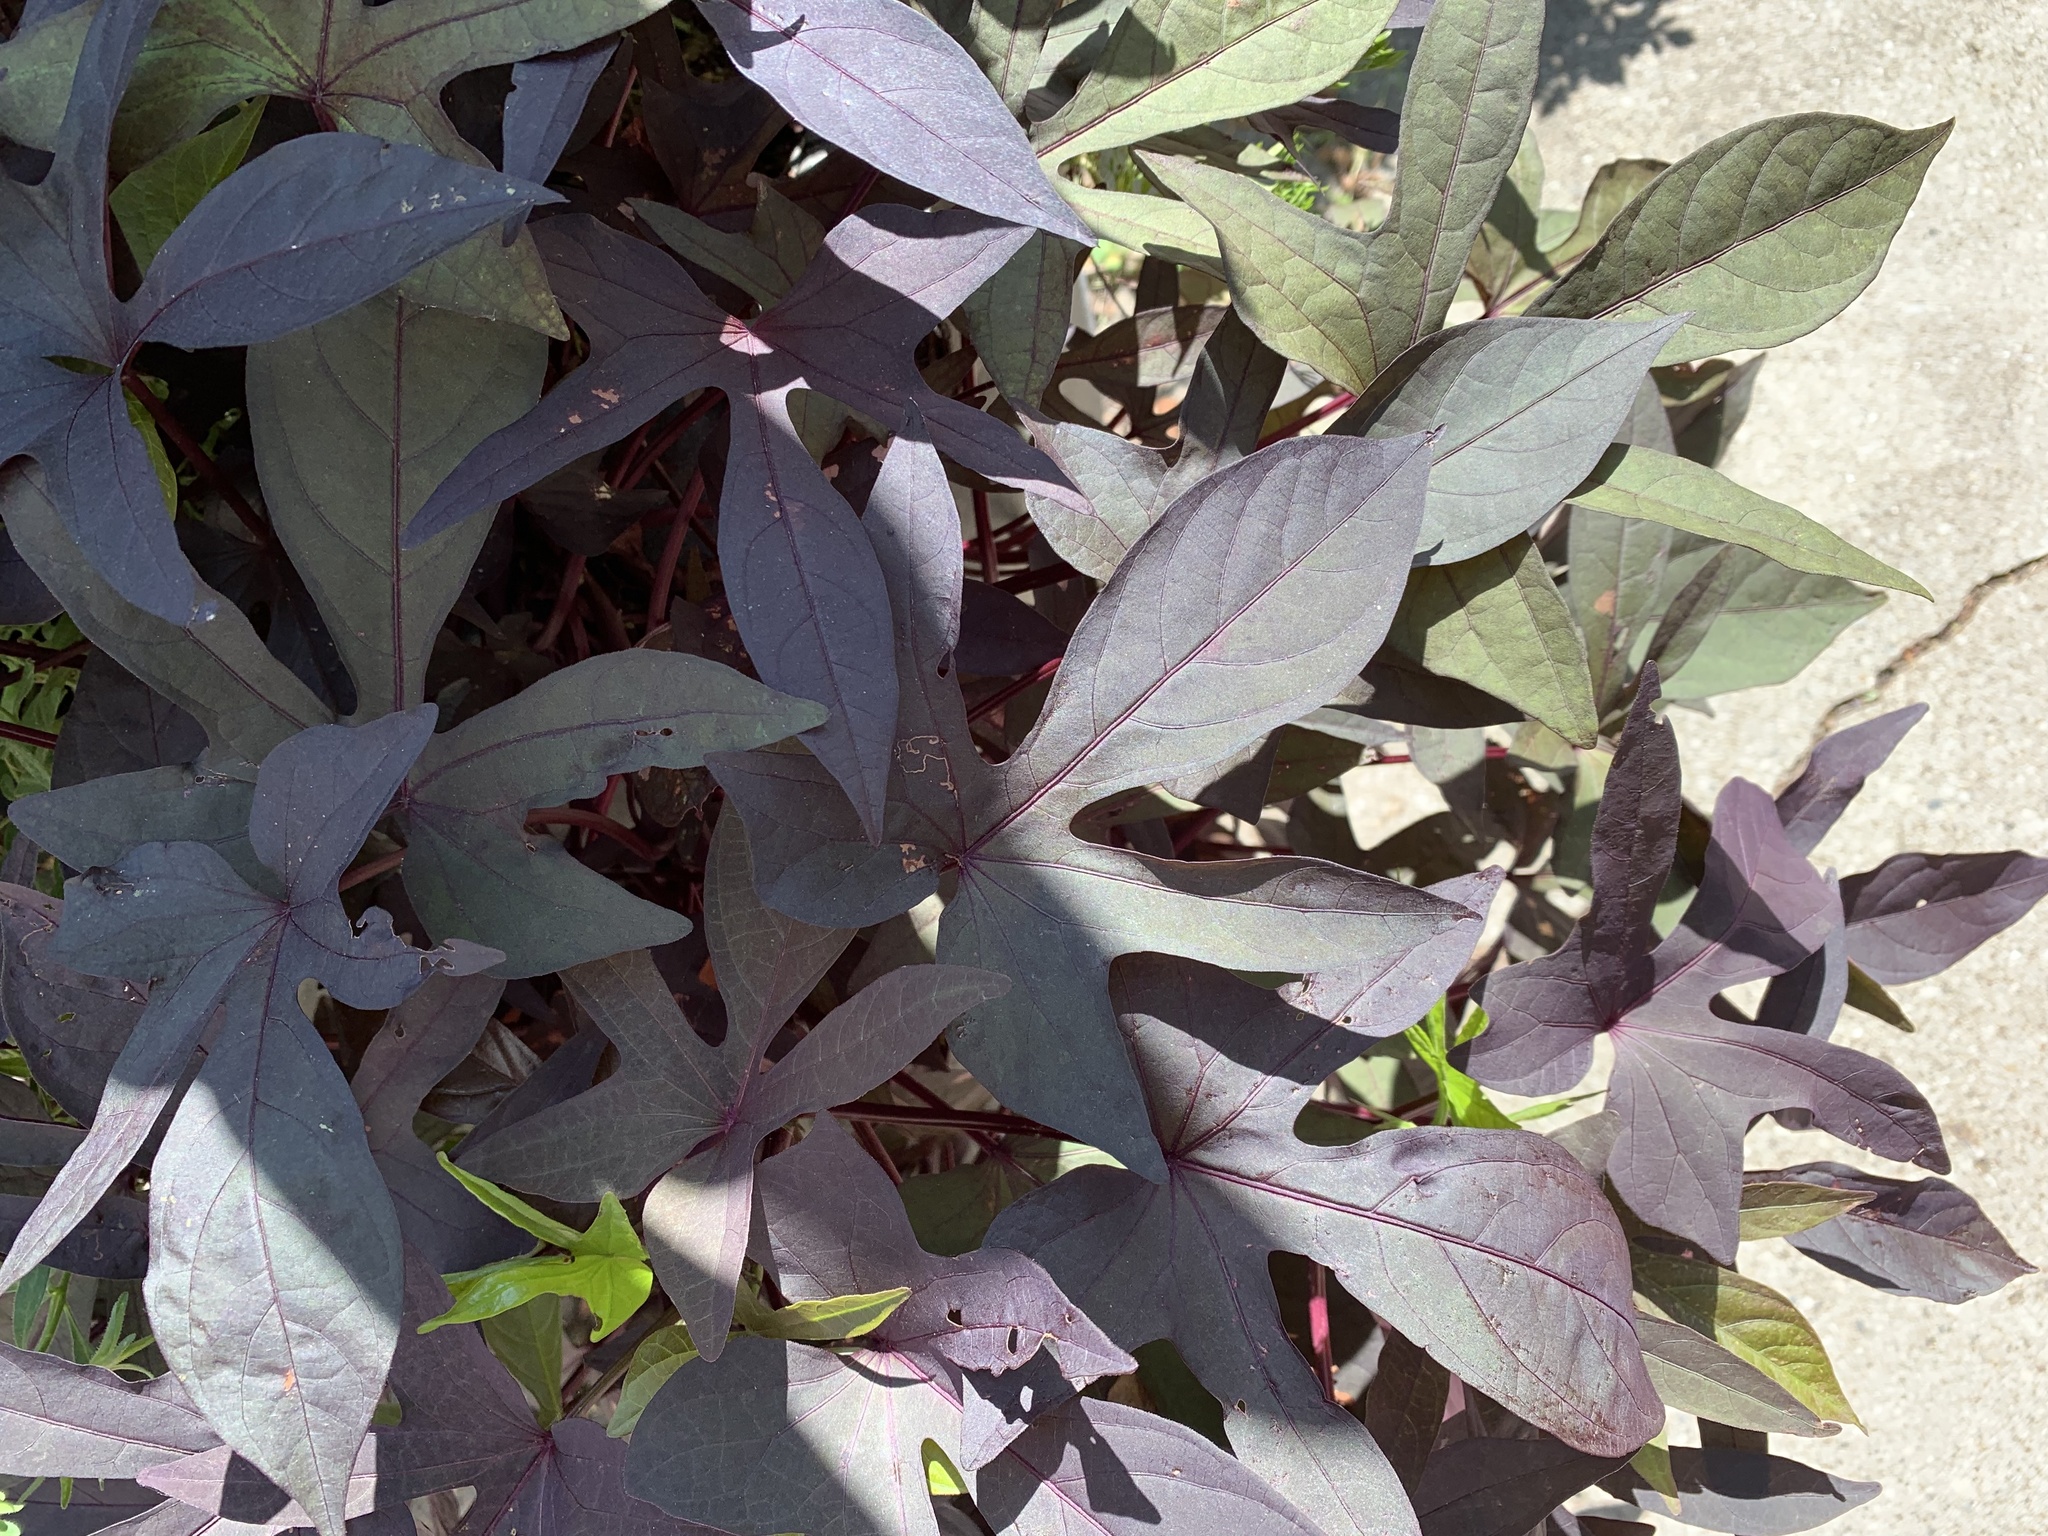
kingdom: Plantae
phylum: Tracheophyta
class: Magnoliopsida
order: Solanales
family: Convolvulaceae
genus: Ipomoea
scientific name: Ipomoea batatas
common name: Sweet-potato
